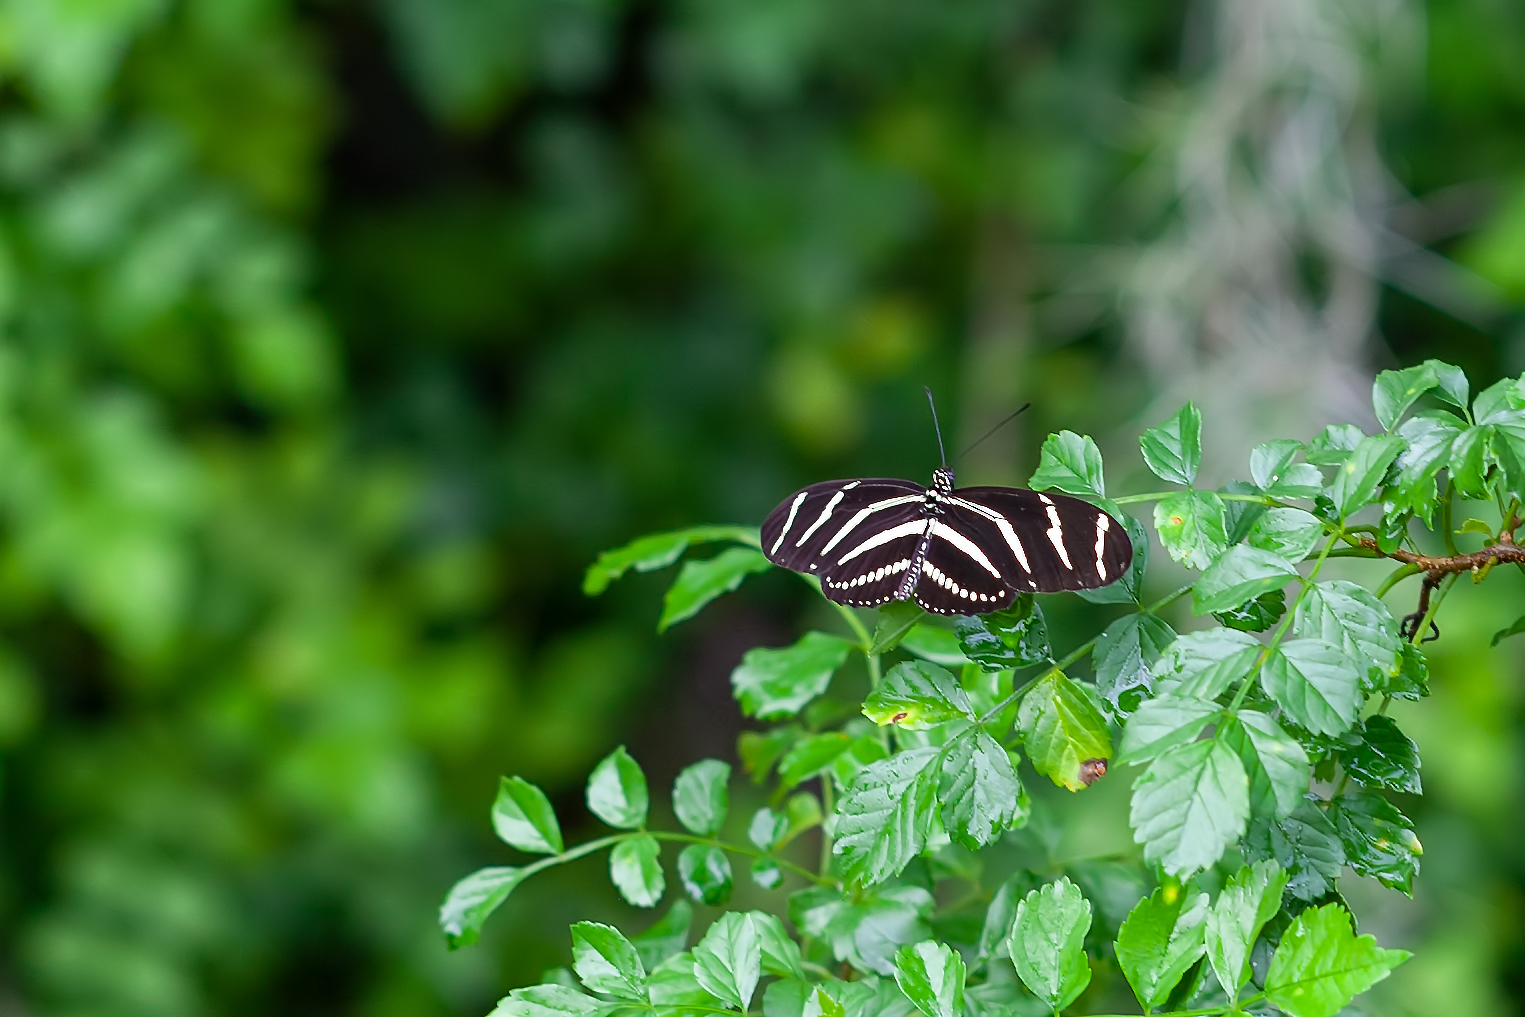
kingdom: Animalia
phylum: Arthropoda
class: Insecta
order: Lepidoptera
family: Nymphalidae
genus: Heliconius
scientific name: Heliconius charithonia
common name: Zebra long wing
